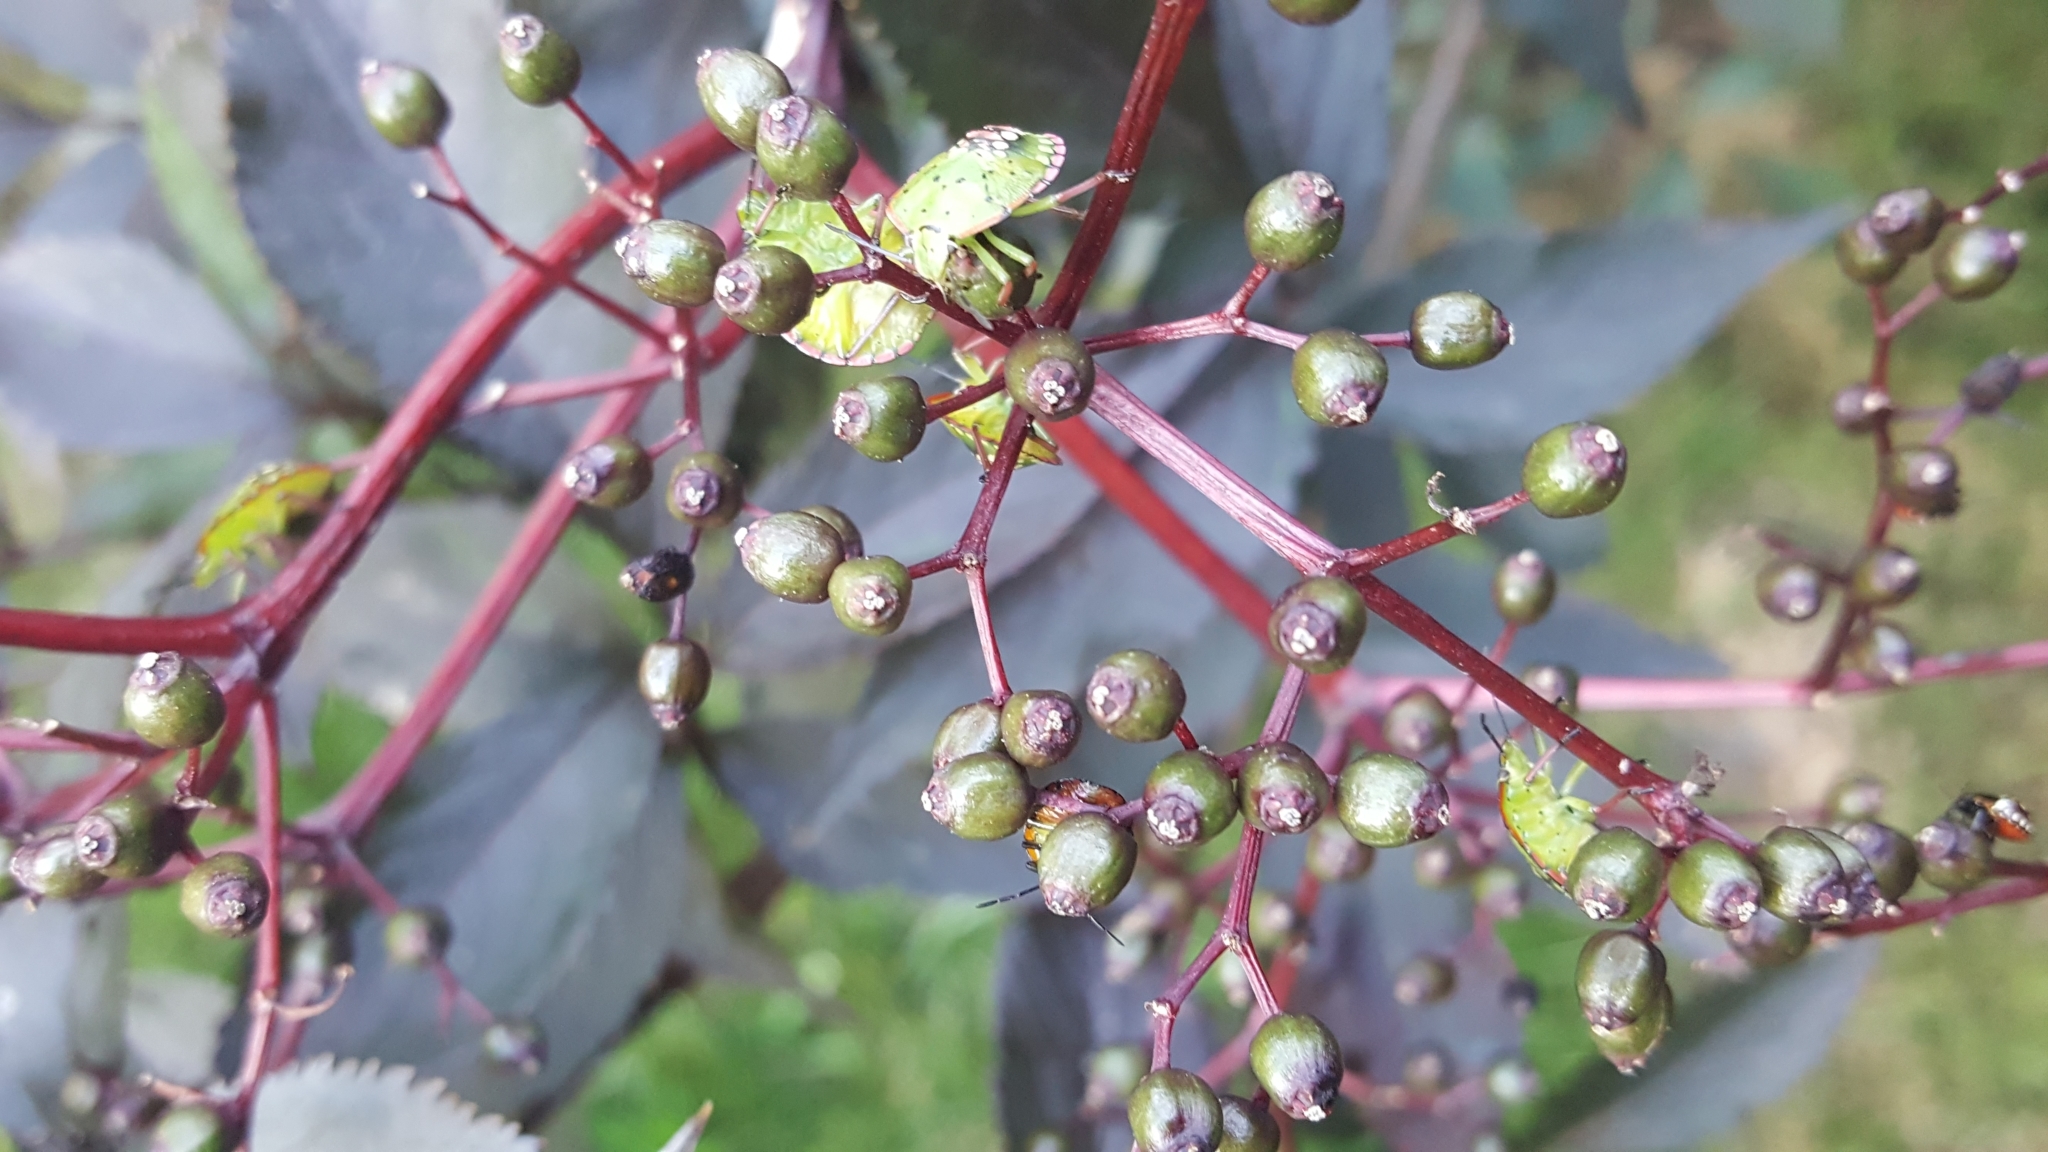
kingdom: Animalia
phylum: Arthropoda
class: Insecta
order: Hemiptera
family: Pentatomidae
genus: Nezara
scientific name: Nezara viridula
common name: Southern green stink bug
